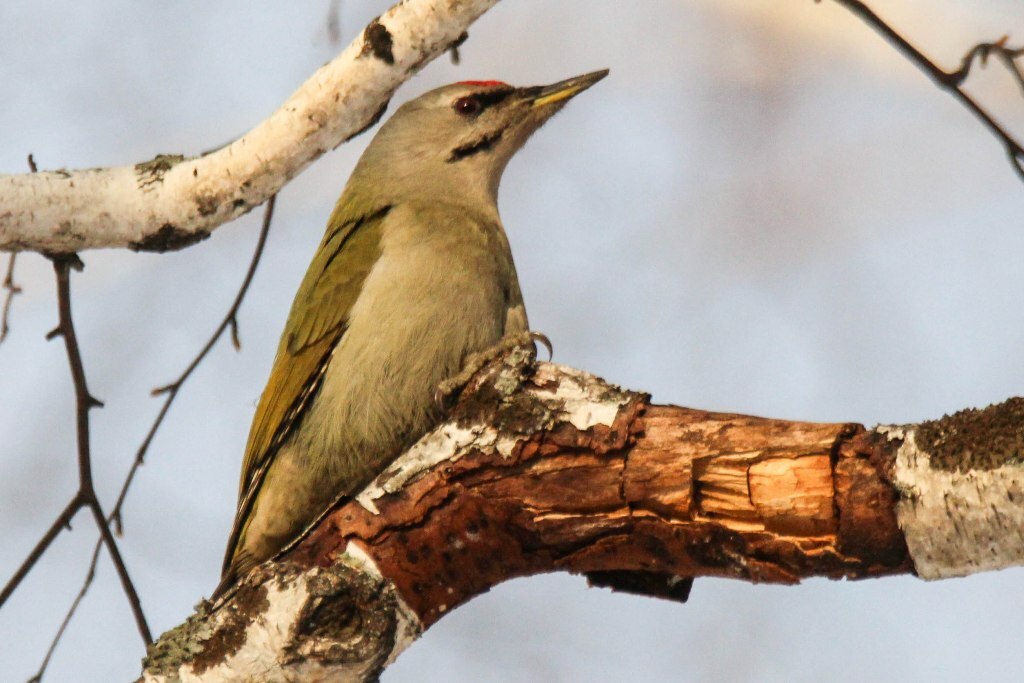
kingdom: Animalia
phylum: Chordata
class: Aves
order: Piciformes
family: Picidae
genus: Picus
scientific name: Picus canus
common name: Grey-headed woodpecker
